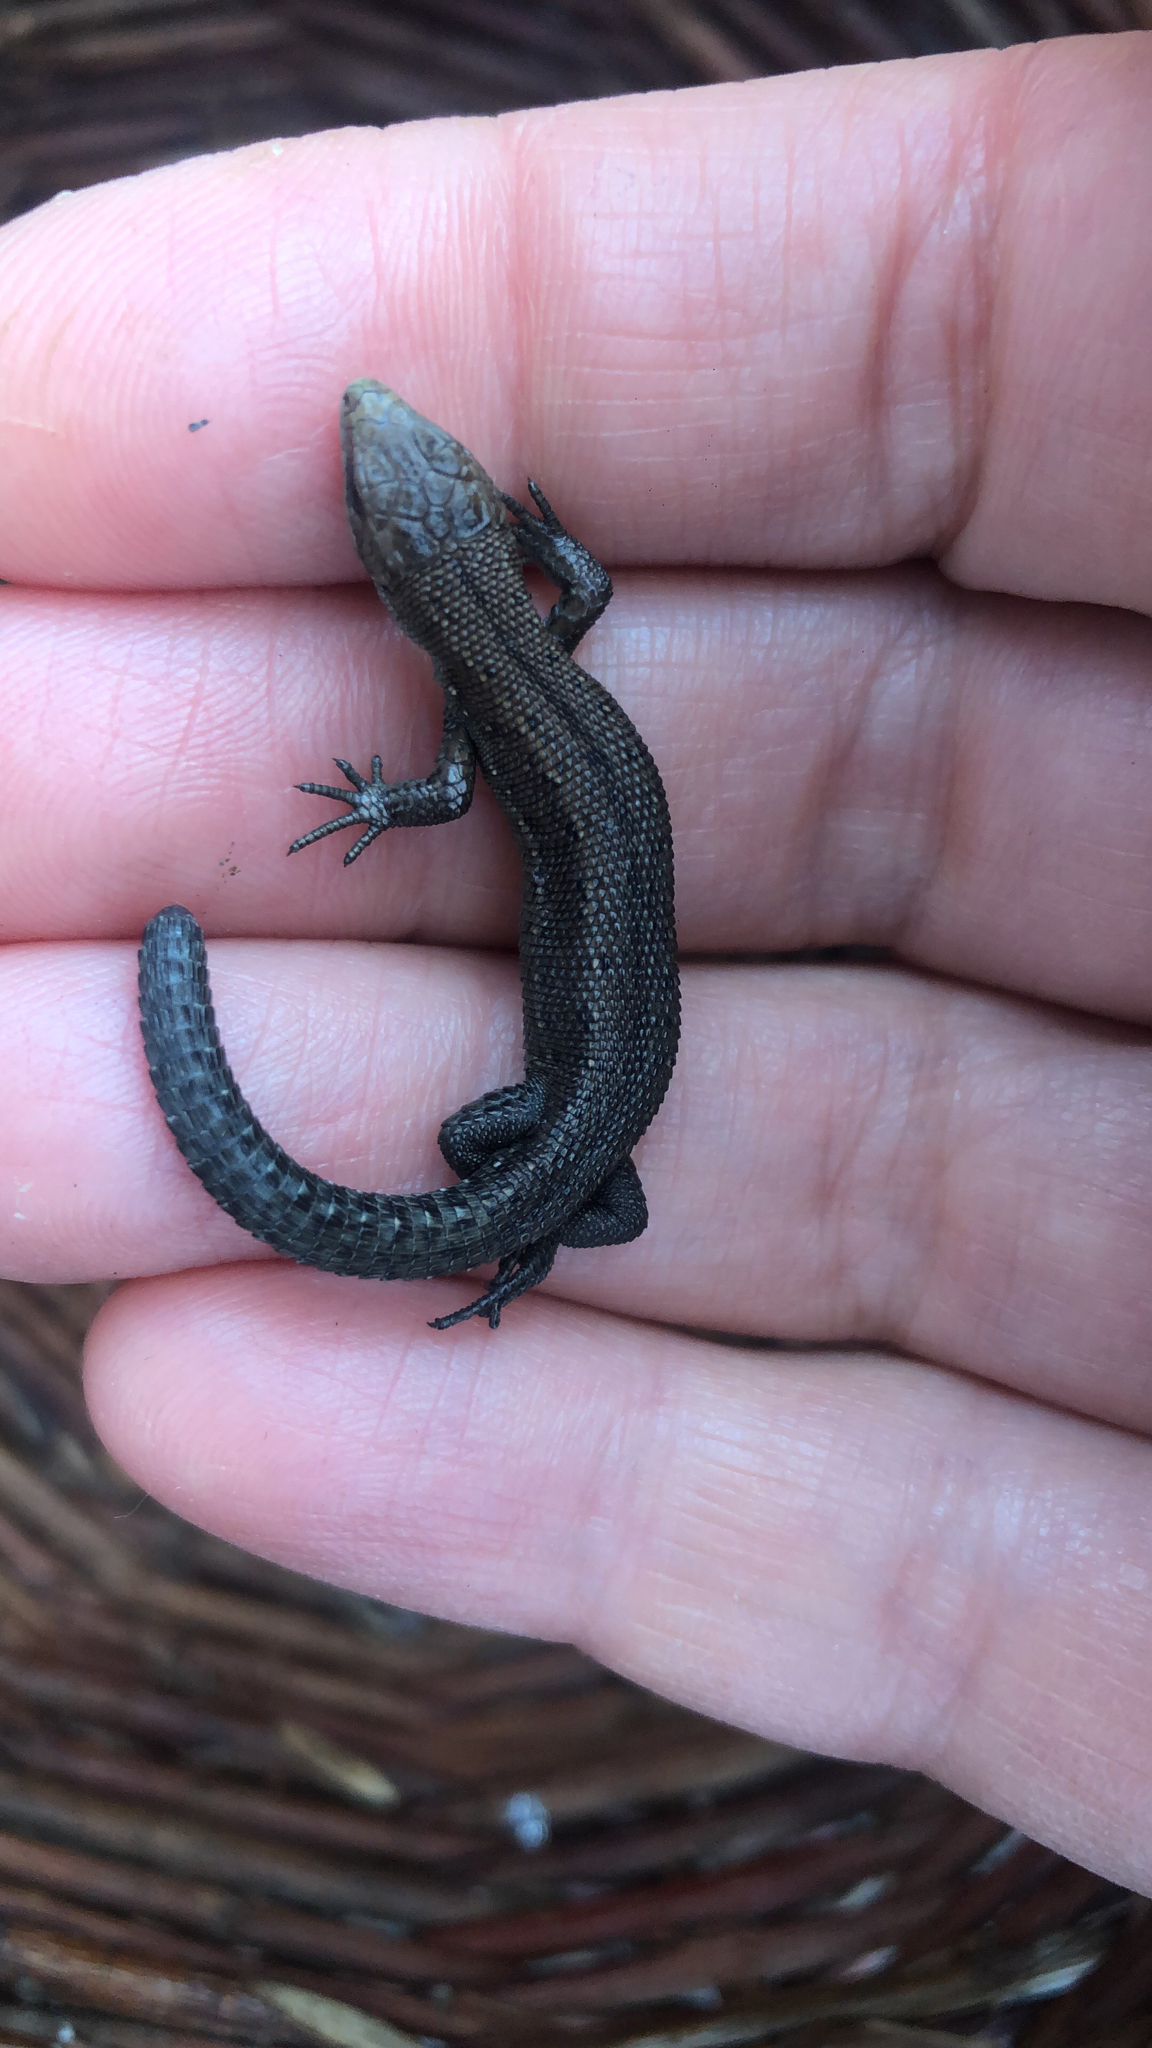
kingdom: Animalia
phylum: Chordata
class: Squamata
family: Lacertidae
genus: Zootoca
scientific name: Zootoca vivipara
